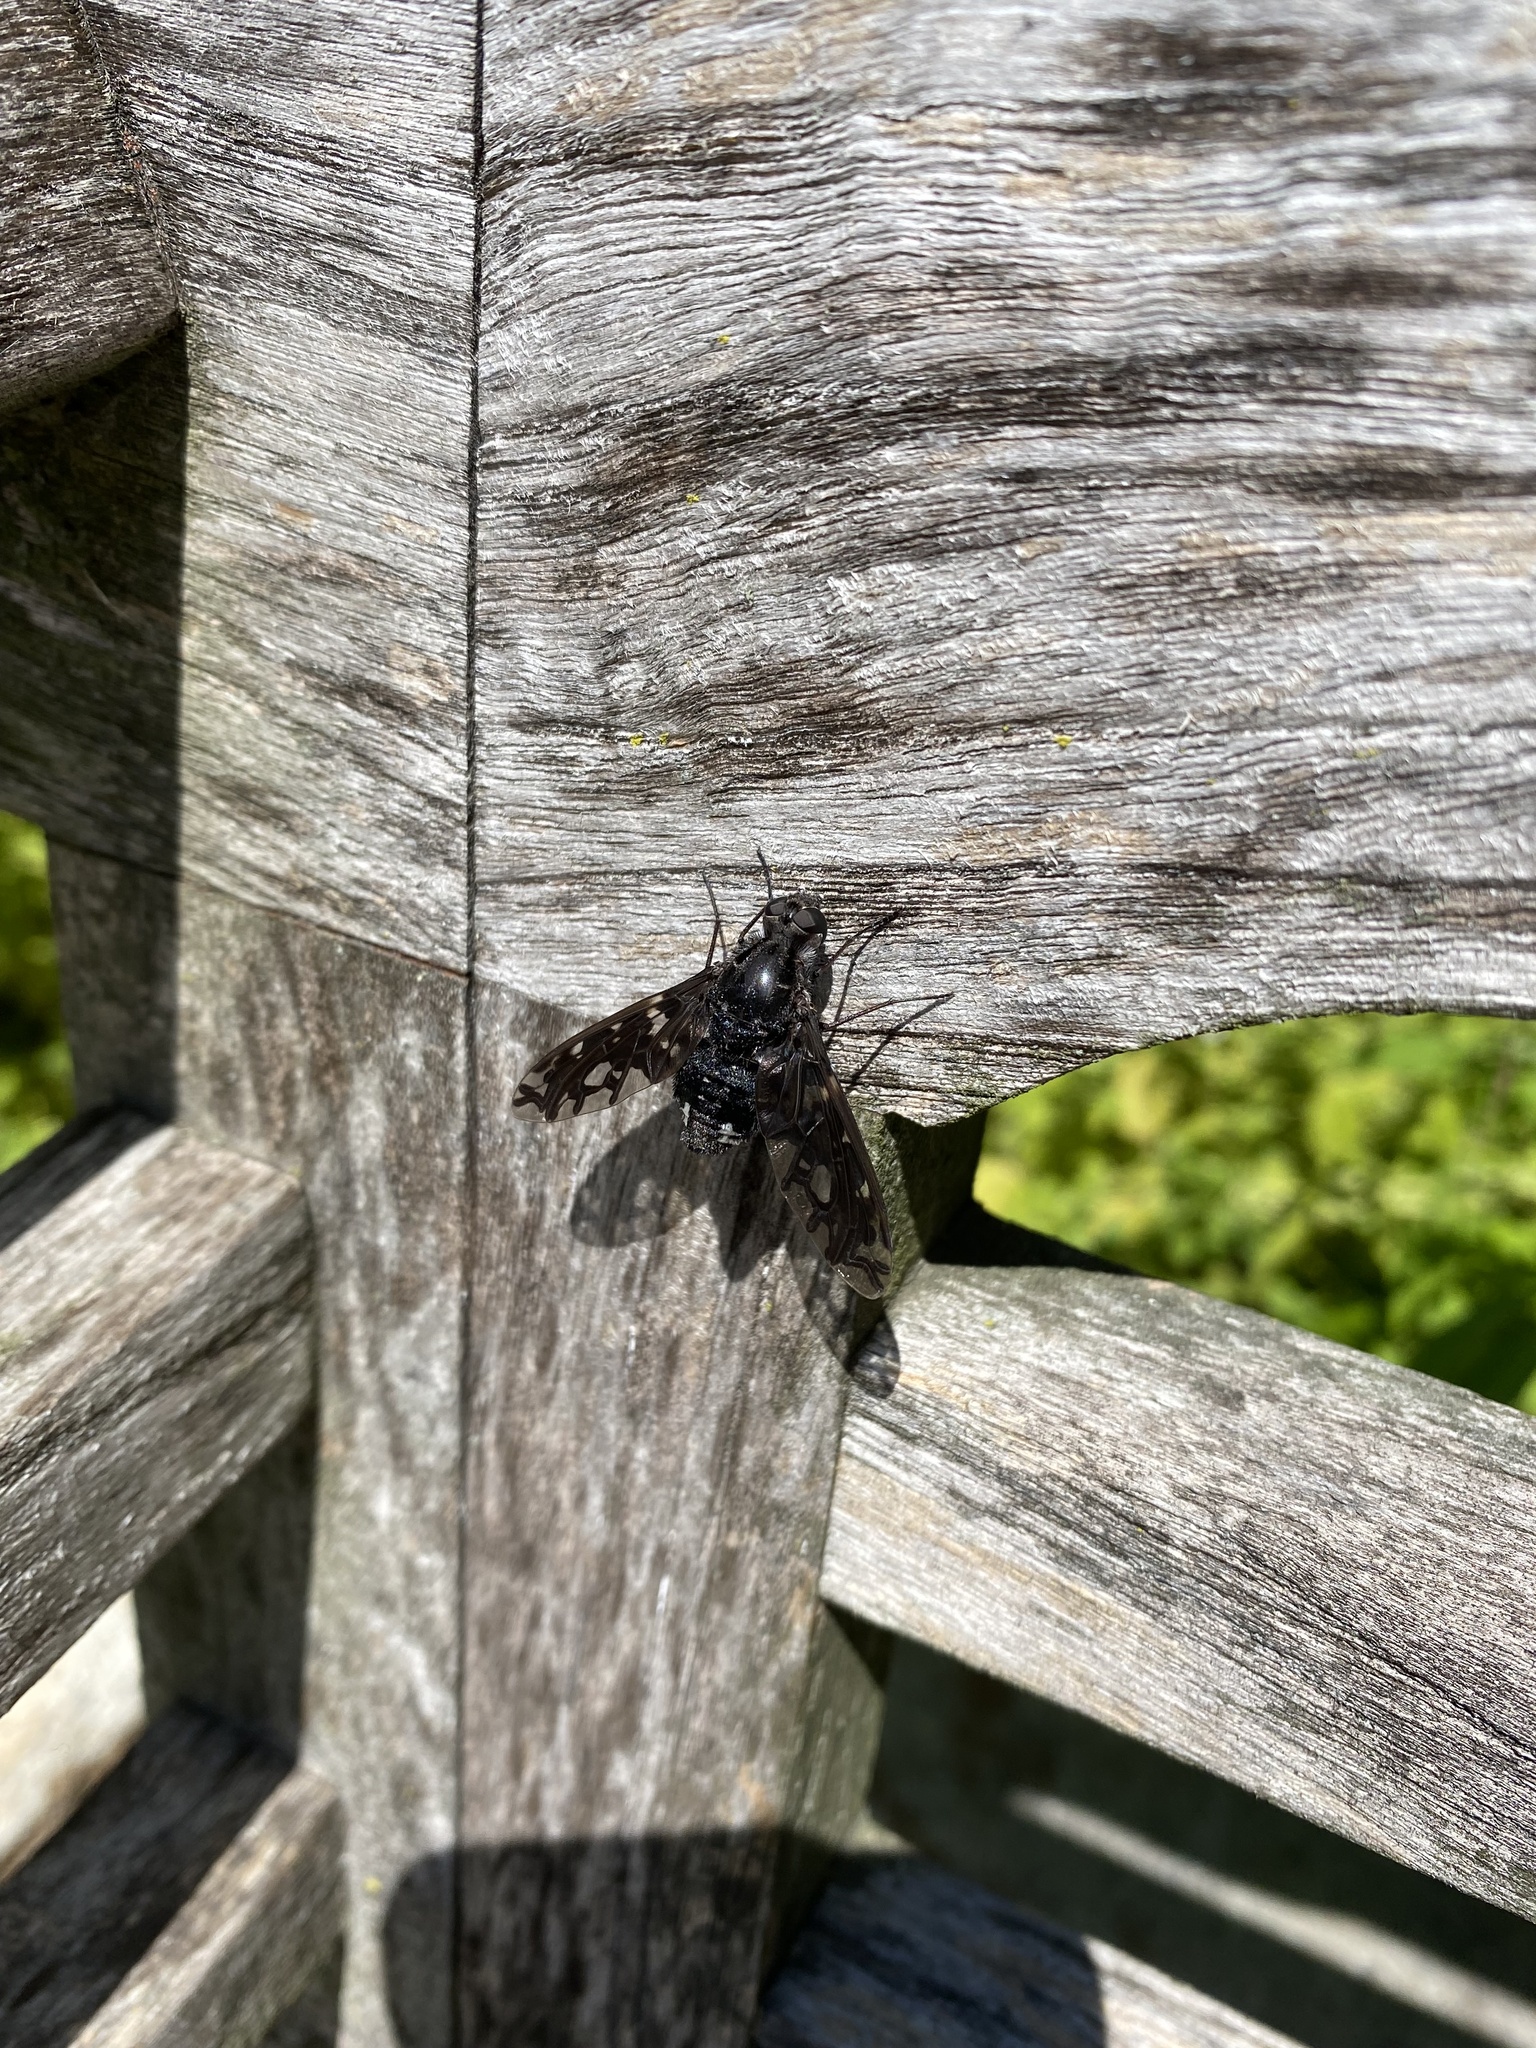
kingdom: Animalia
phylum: Arthropoda
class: Insecta
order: Diptera
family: Bombyliidae
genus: Xenox
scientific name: Xenox tigrinus
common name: Tiger bee fly
